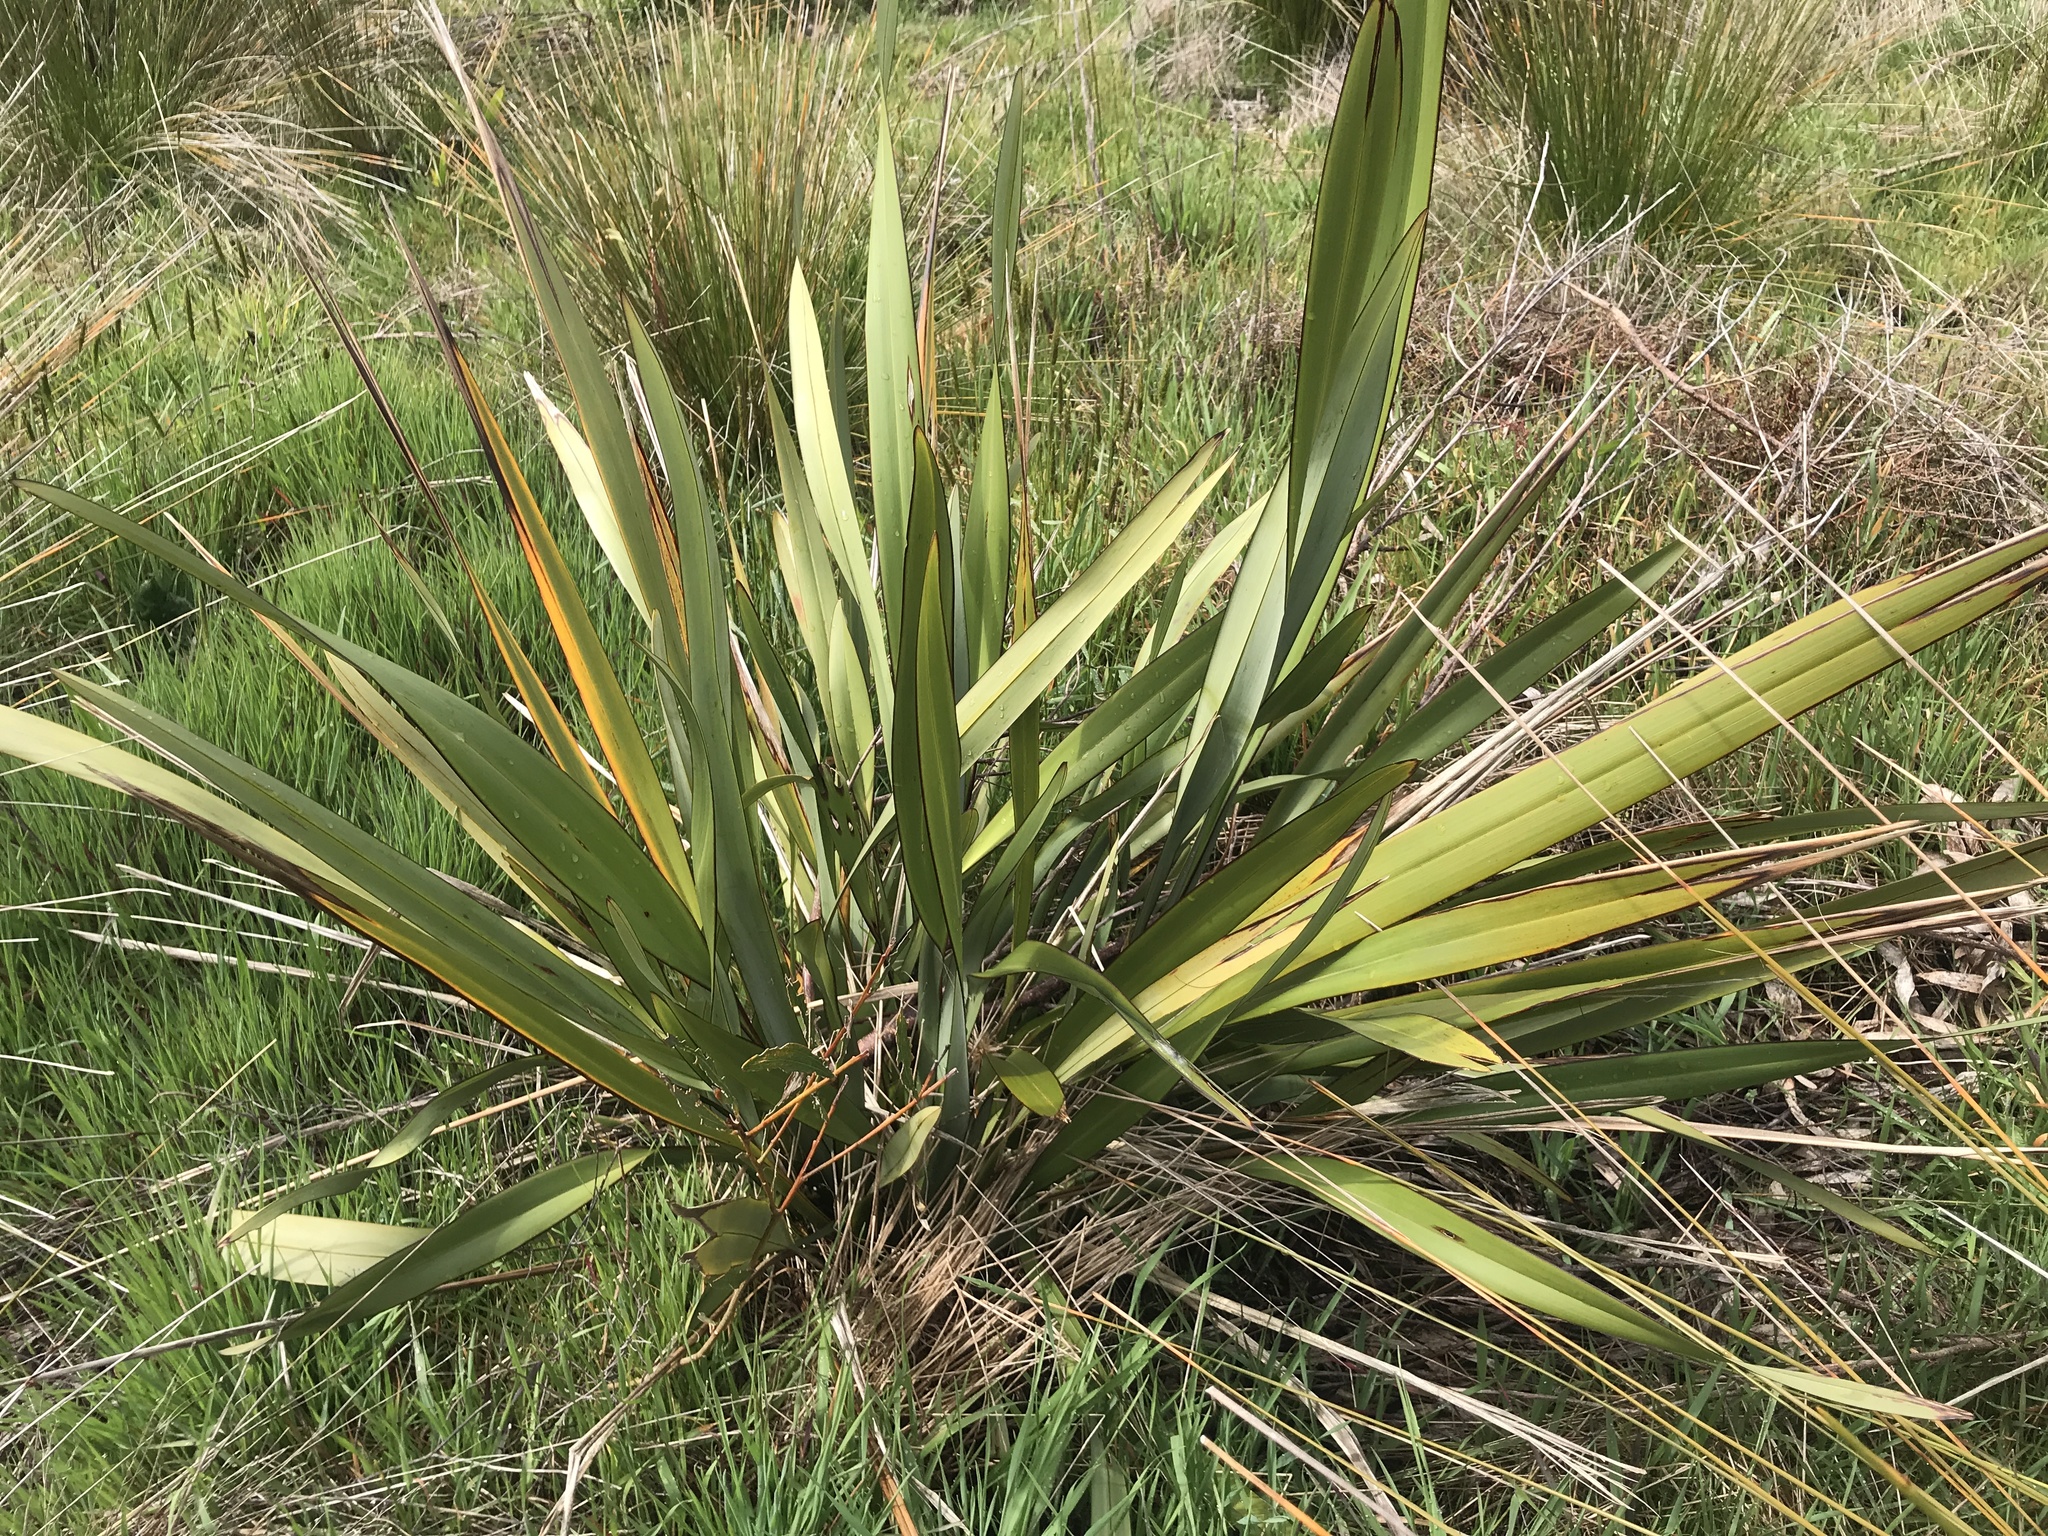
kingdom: Plantae
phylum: Tracheophyta
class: Liliopsida
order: Asparagales
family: Asphodelaceae
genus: Phormium
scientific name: Phormium tenax
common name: New zealand flax
